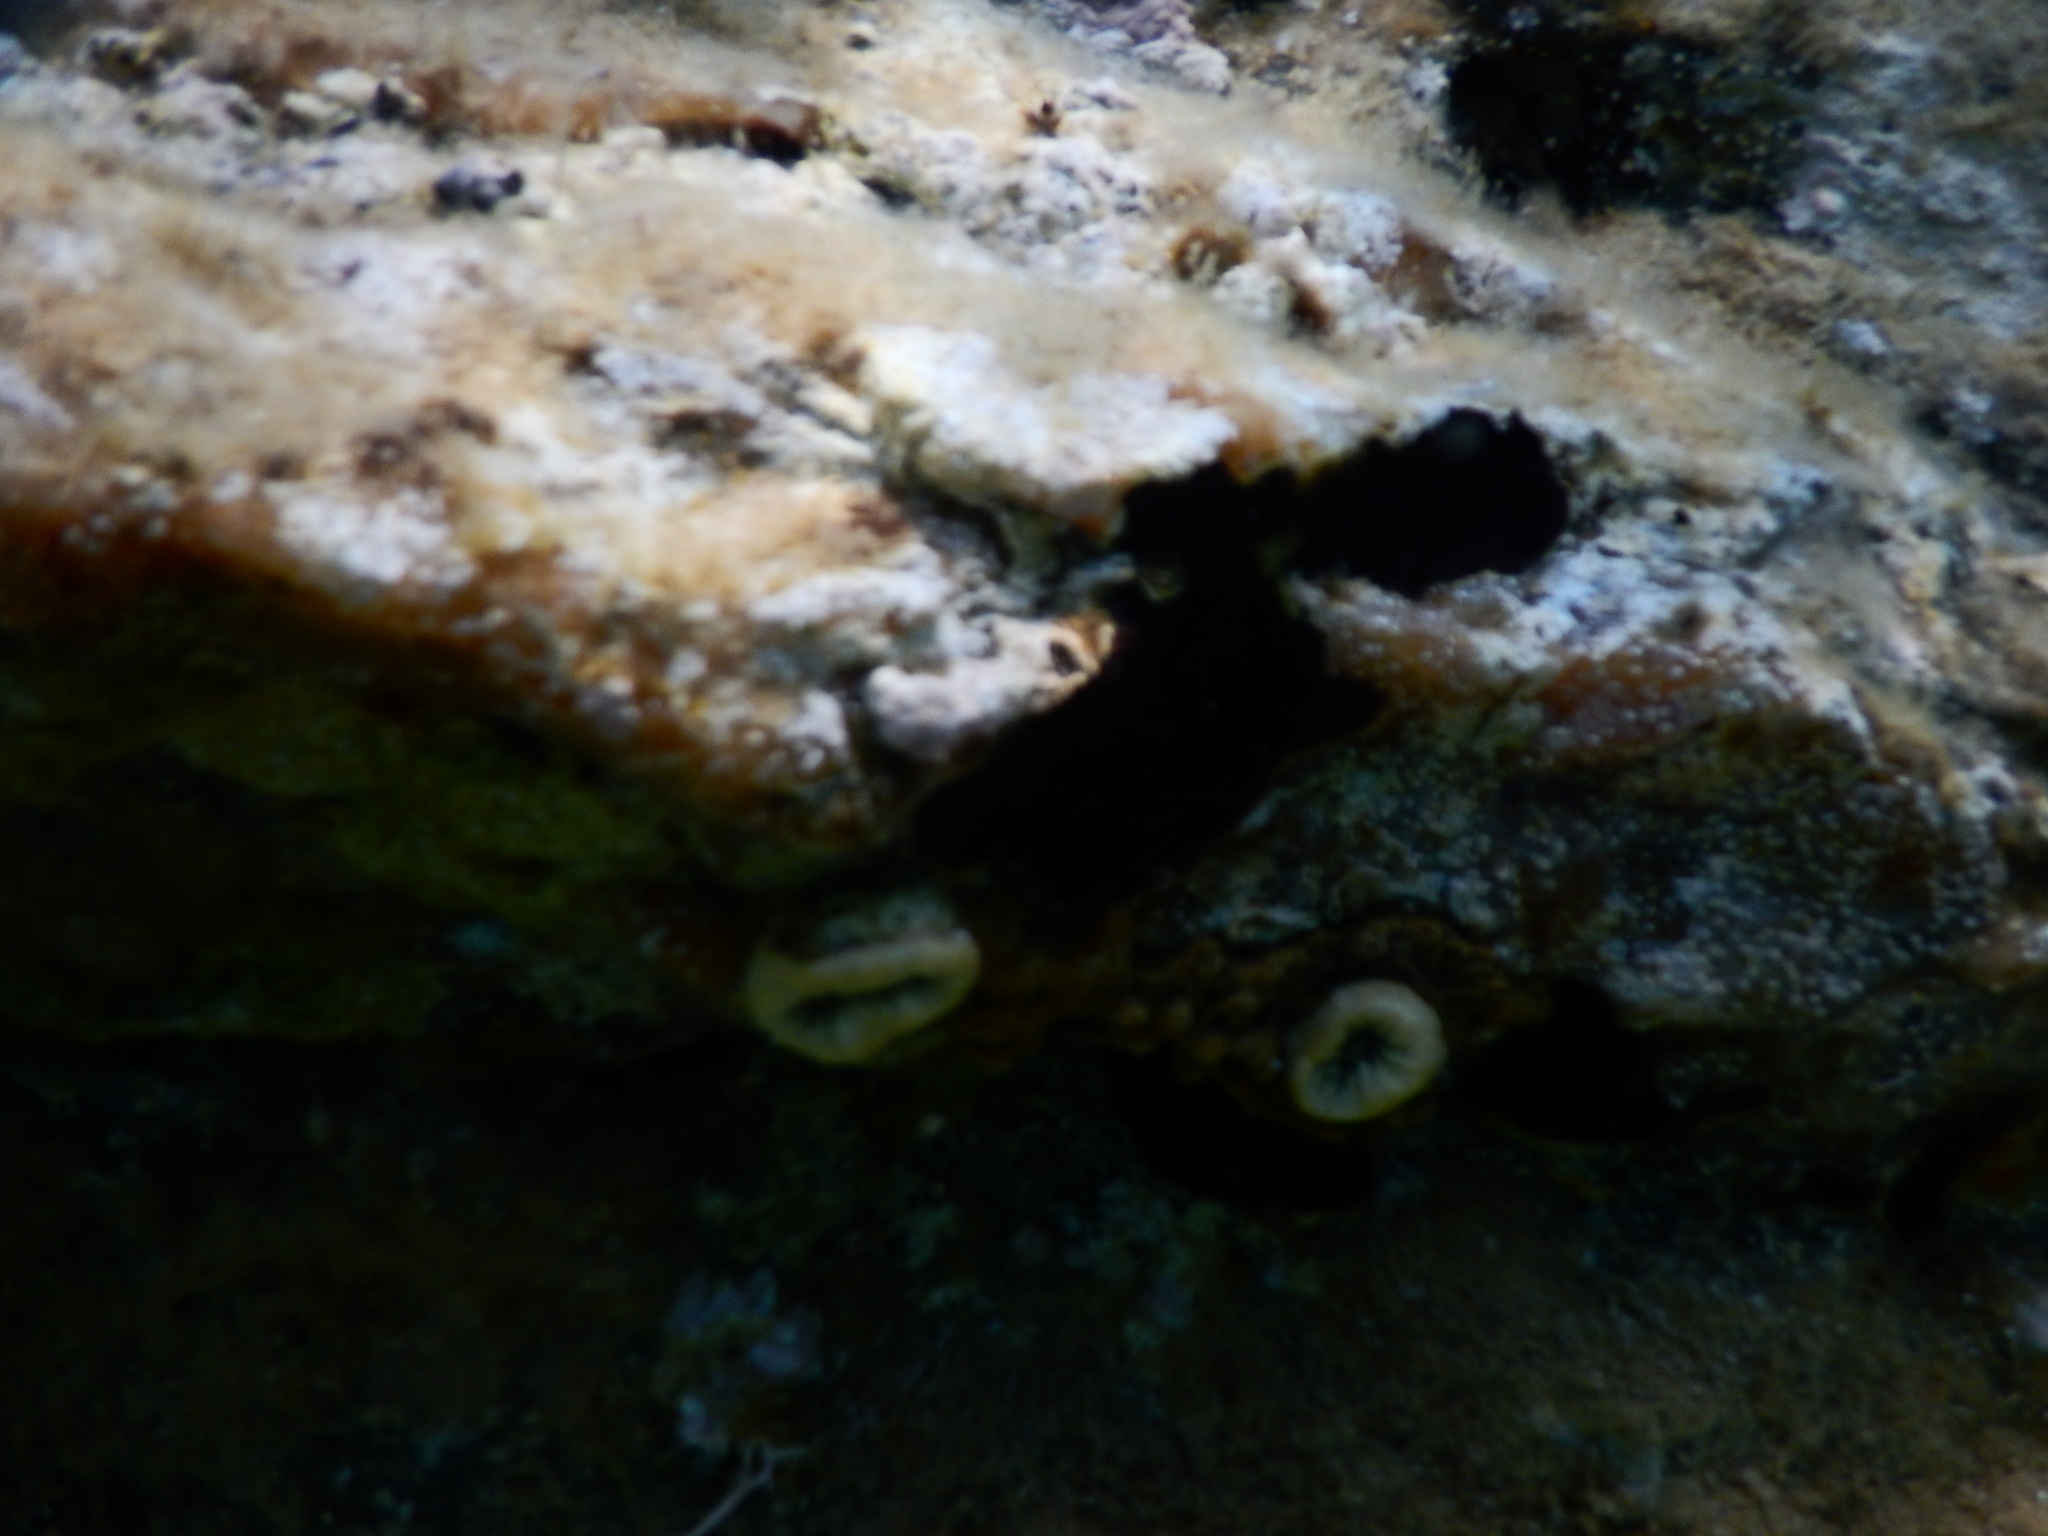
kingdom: Animalia
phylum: Cnidaria
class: Anthozoa
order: Scleractinia
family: Dendrophylliidae
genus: Balanophyllia
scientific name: Balanophyllia europaea
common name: Scarlet coral
